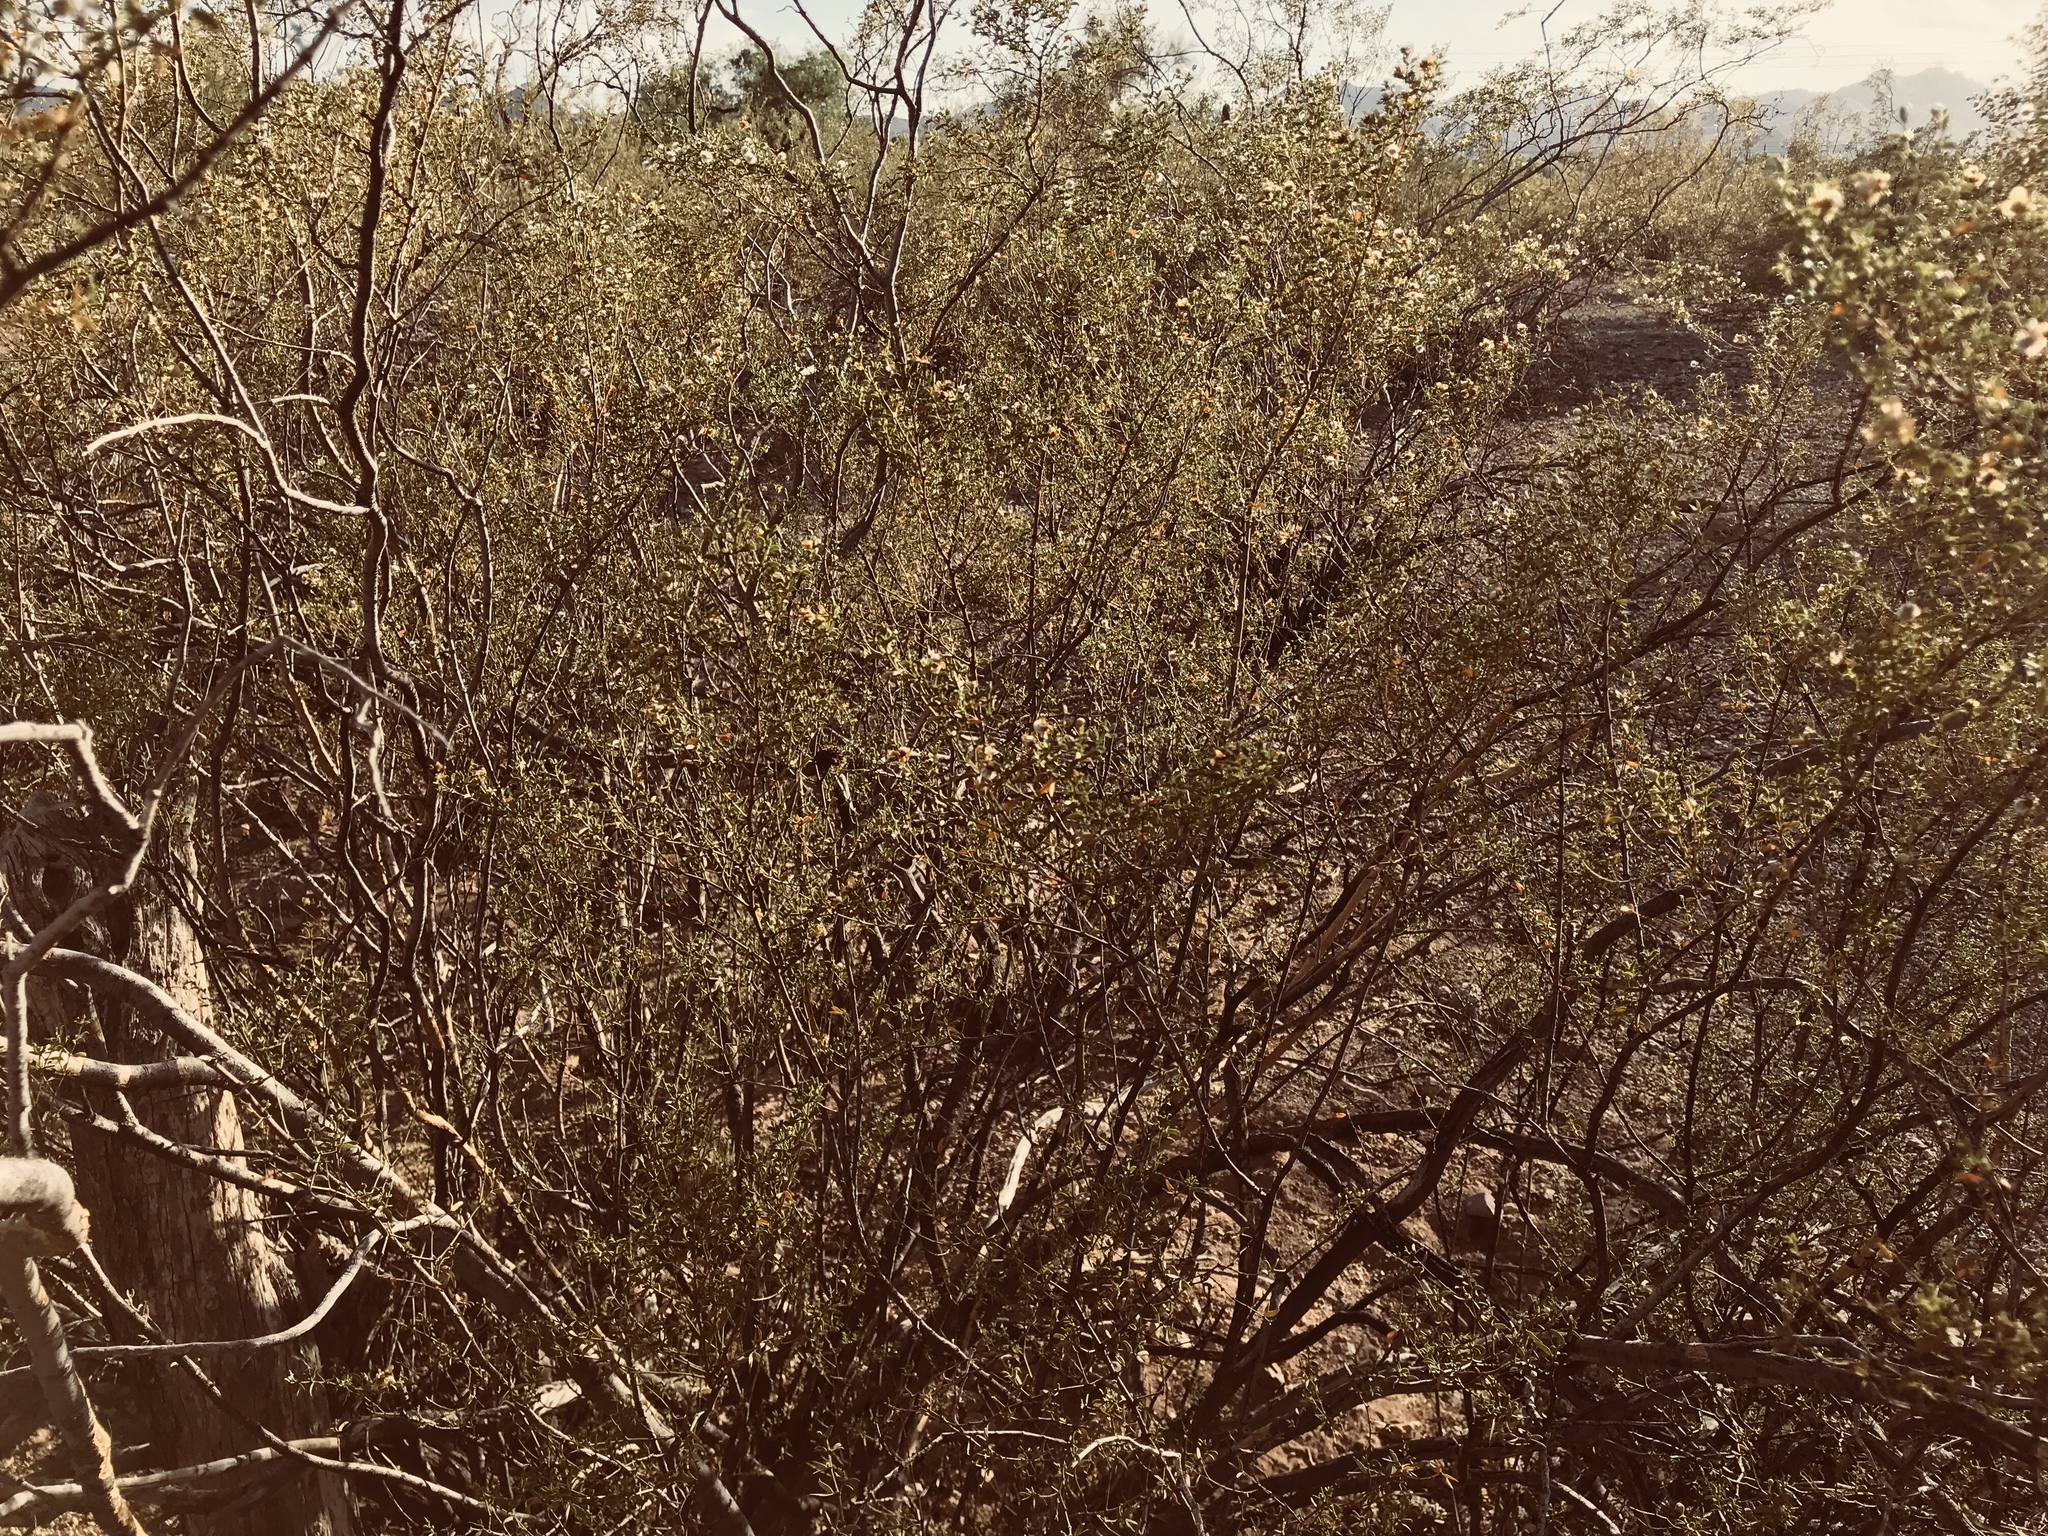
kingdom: Plantae
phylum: Tracheophyta
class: Magnoliopsida
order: Zygophyllales
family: Zygophyllaceae
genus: Larrea
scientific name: Larrea tridentata
